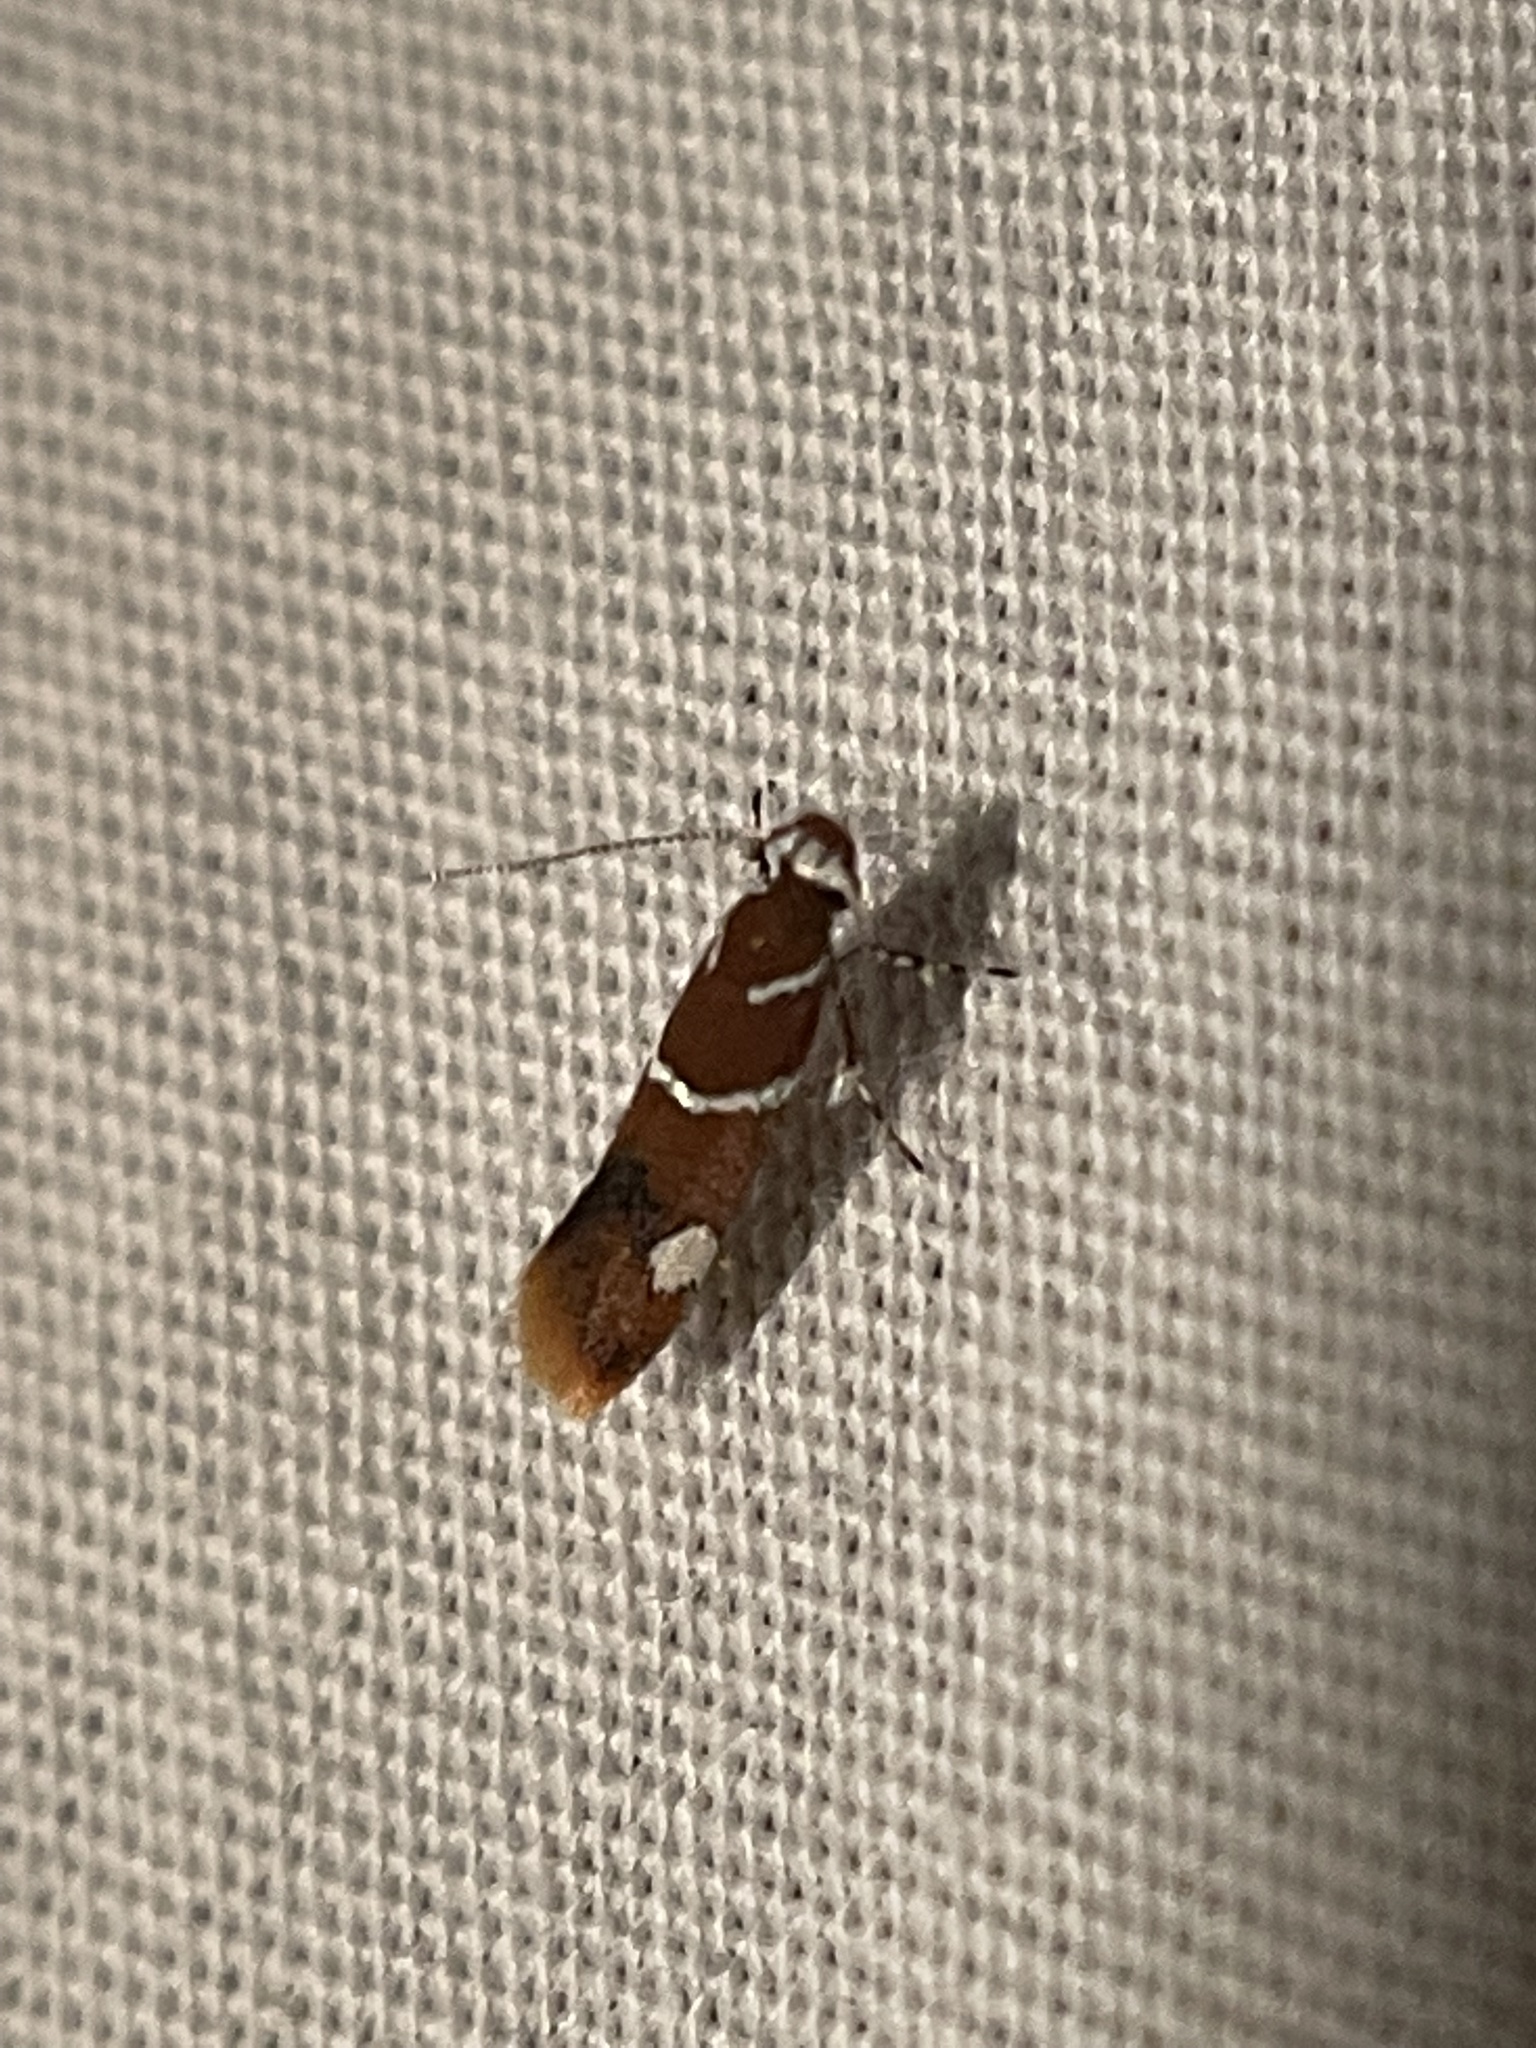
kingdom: Animalia
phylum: Arthropoda
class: Insecta
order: Lepidoptera
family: Oecophoridae
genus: Promalactis
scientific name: Promalactis suzukiella
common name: Moth
